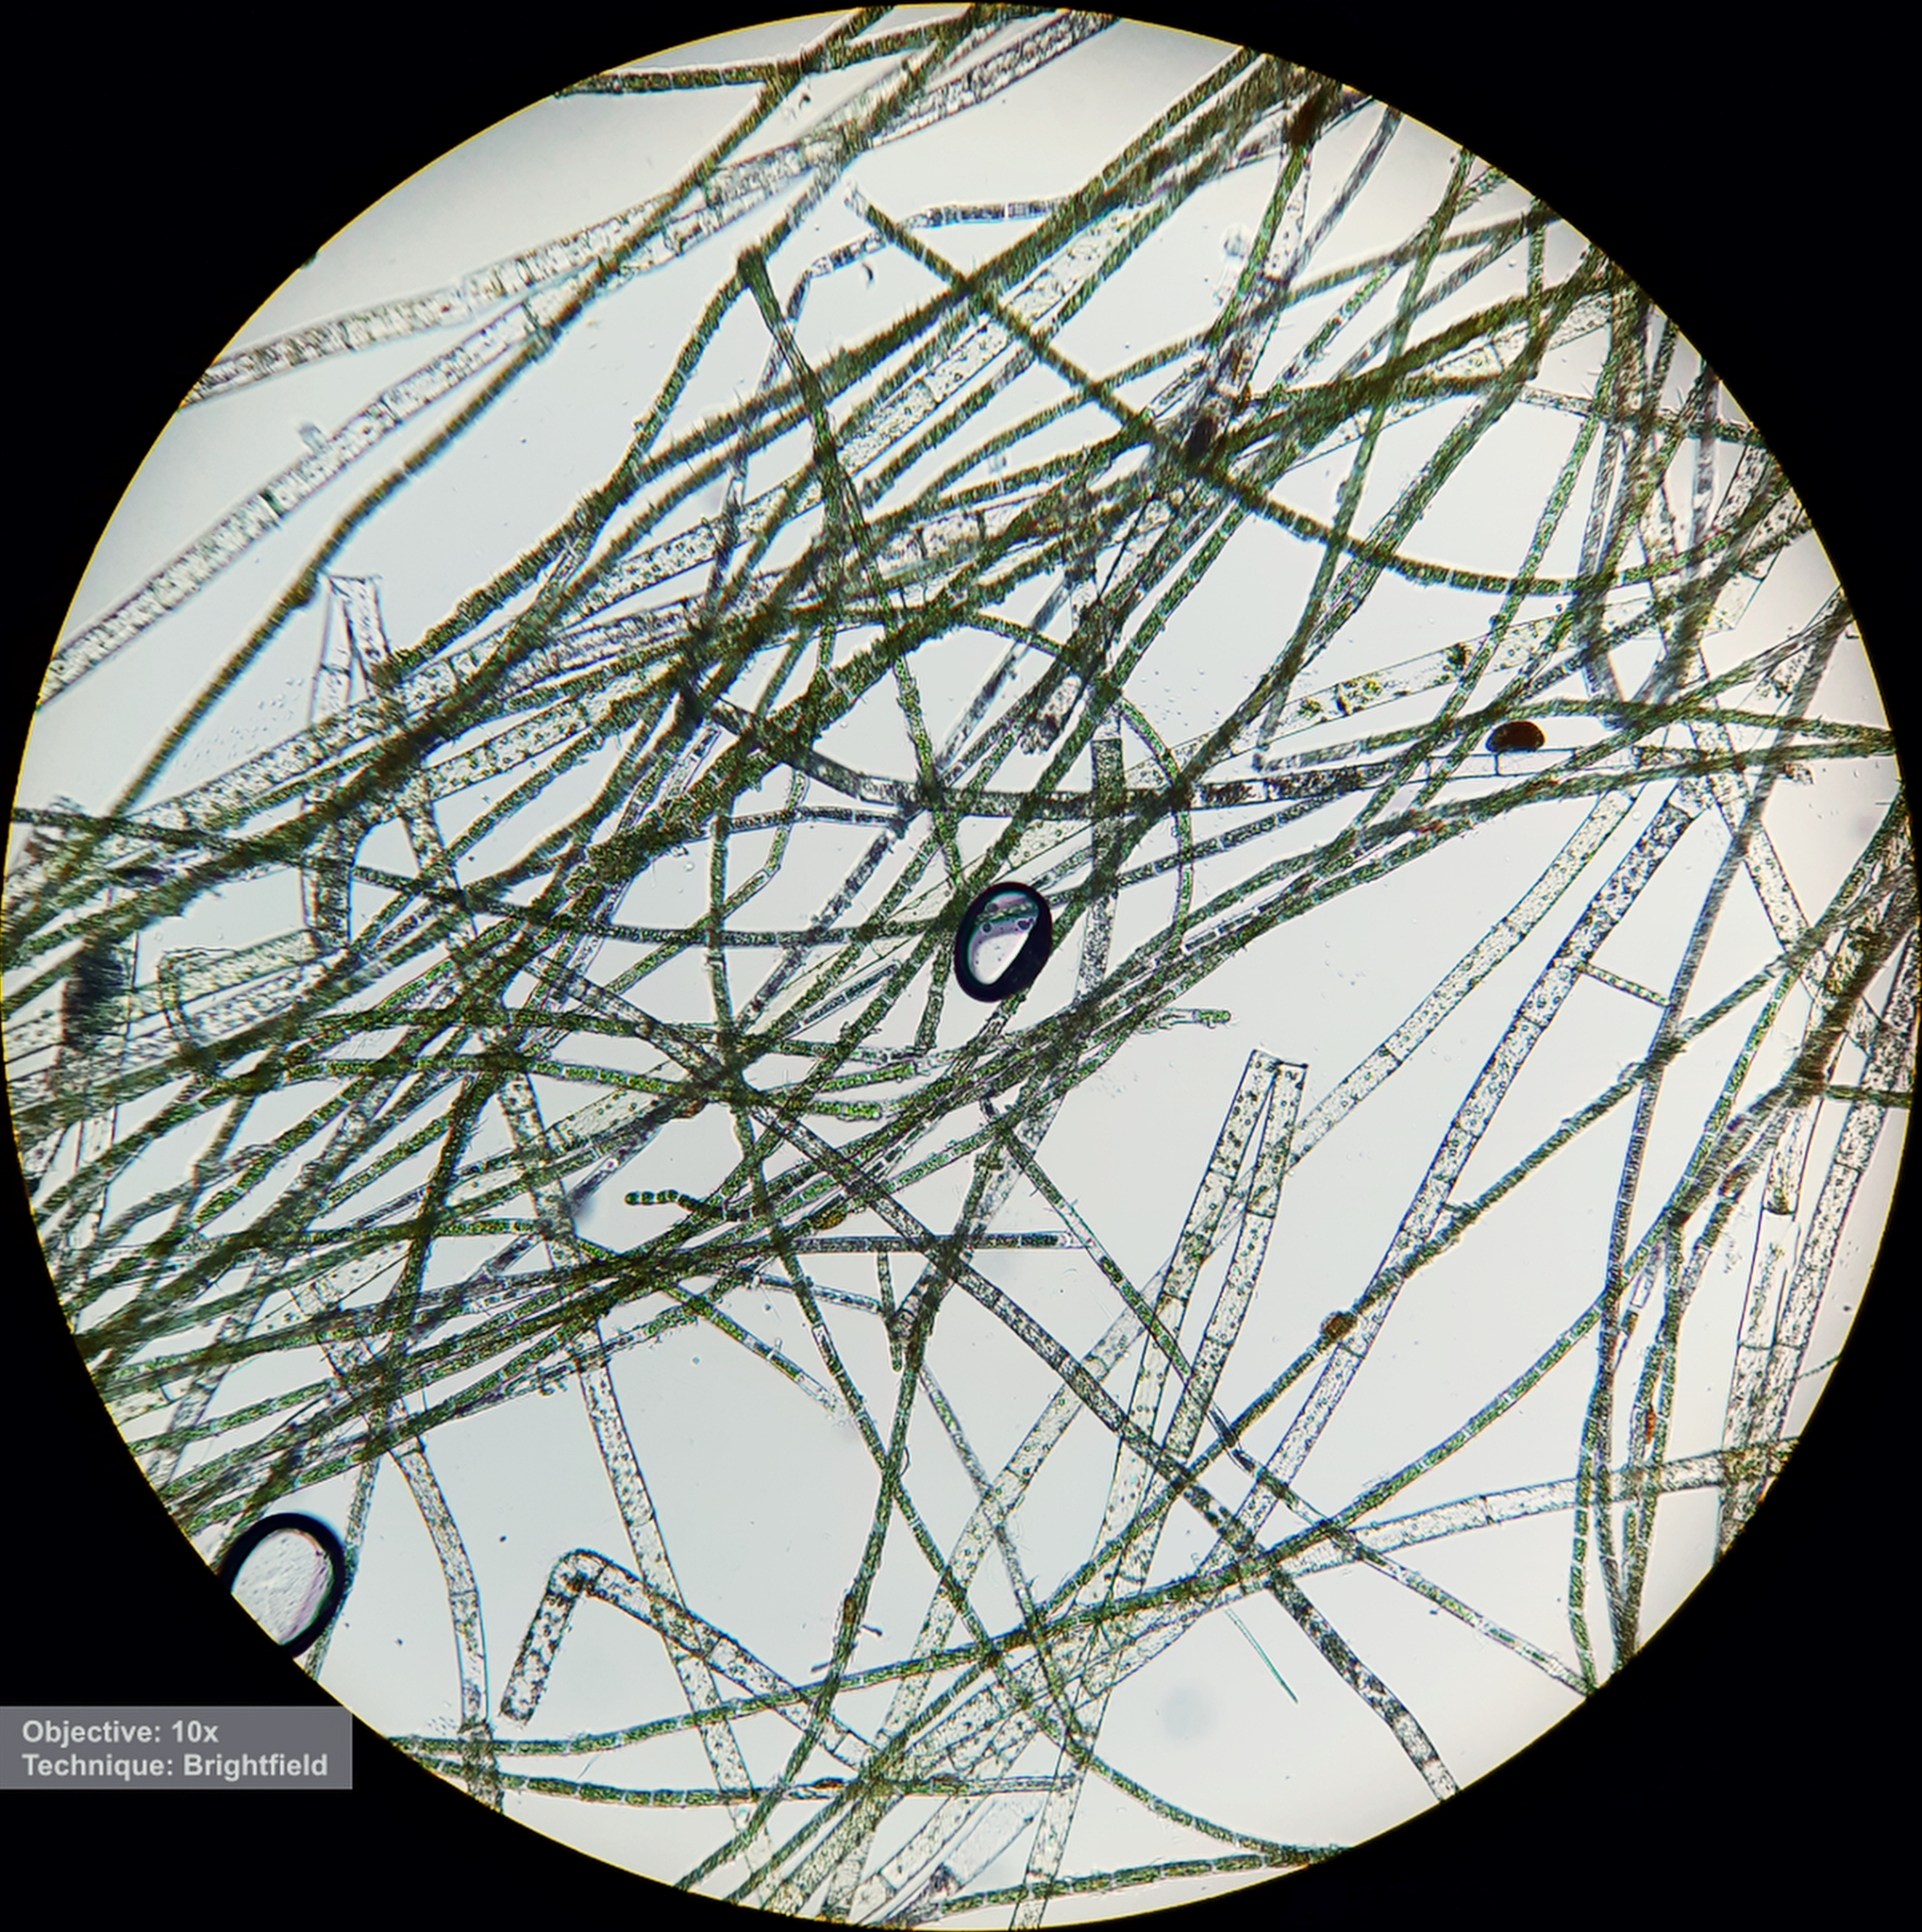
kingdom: Plantae
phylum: Chlorophyta
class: Chlorophyceae
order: Oedogoniales
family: Oedogoniaceae
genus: Oedogonium
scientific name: Oedogonium
